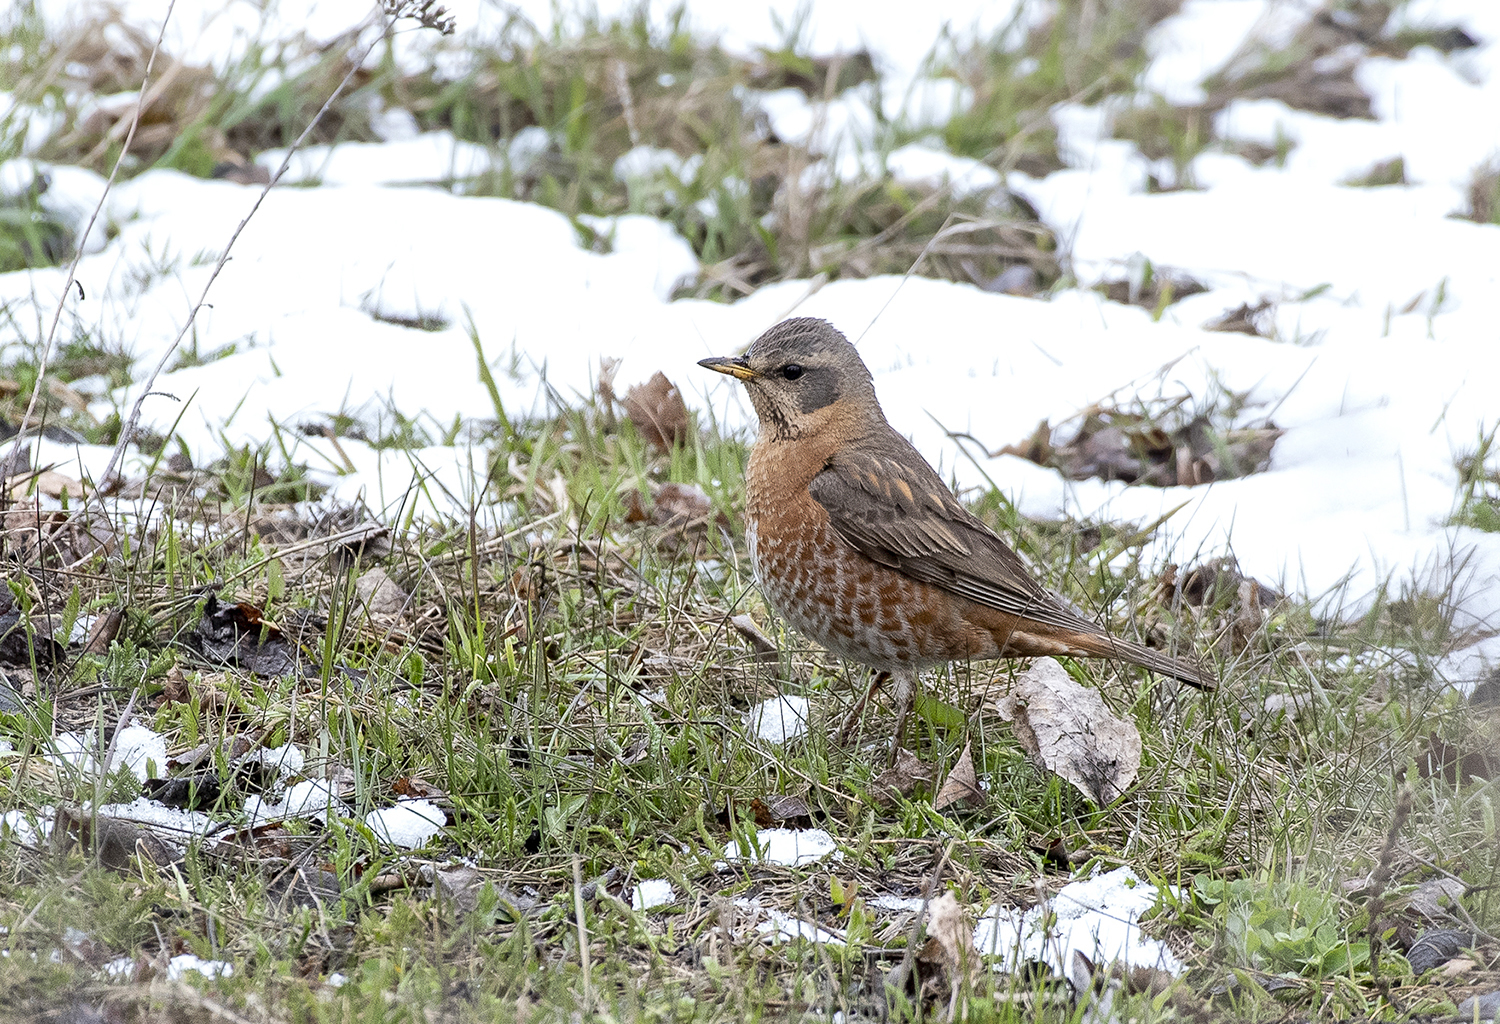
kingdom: Animalia
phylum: Chordata
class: Aves
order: Passeriformes
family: Turdidae
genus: Turdus
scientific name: Turdus naumanni
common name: Naumann's thrush
